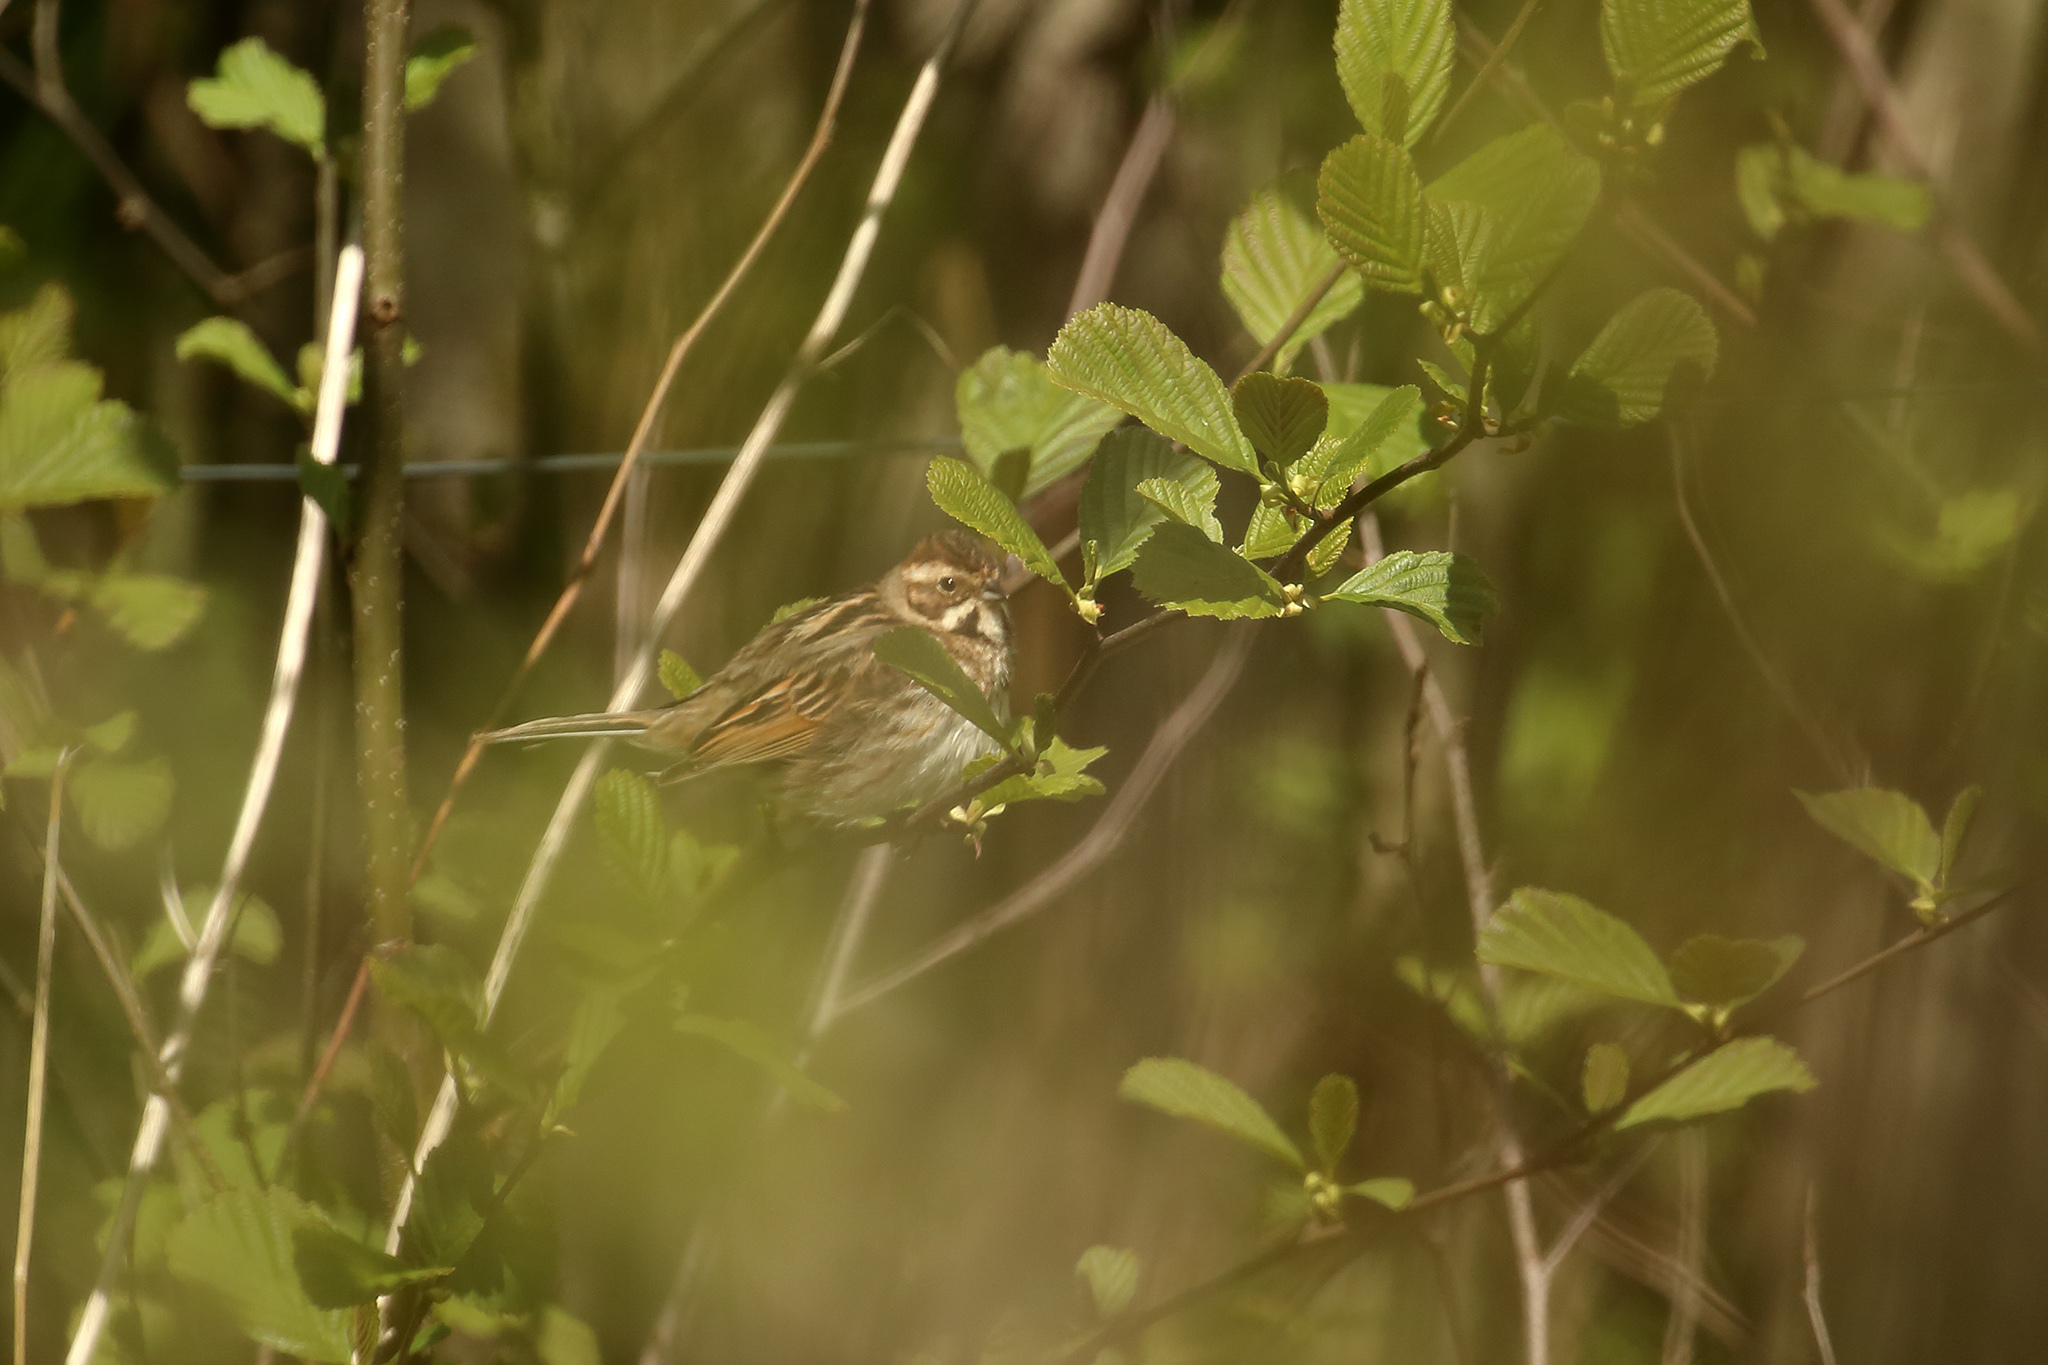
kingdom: Animalia
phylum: Chordata
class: Aves
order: Passeriformes
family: Emberizidae
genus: Emberiza
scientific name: Emberiza schoeniclus
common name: Reed bunting
